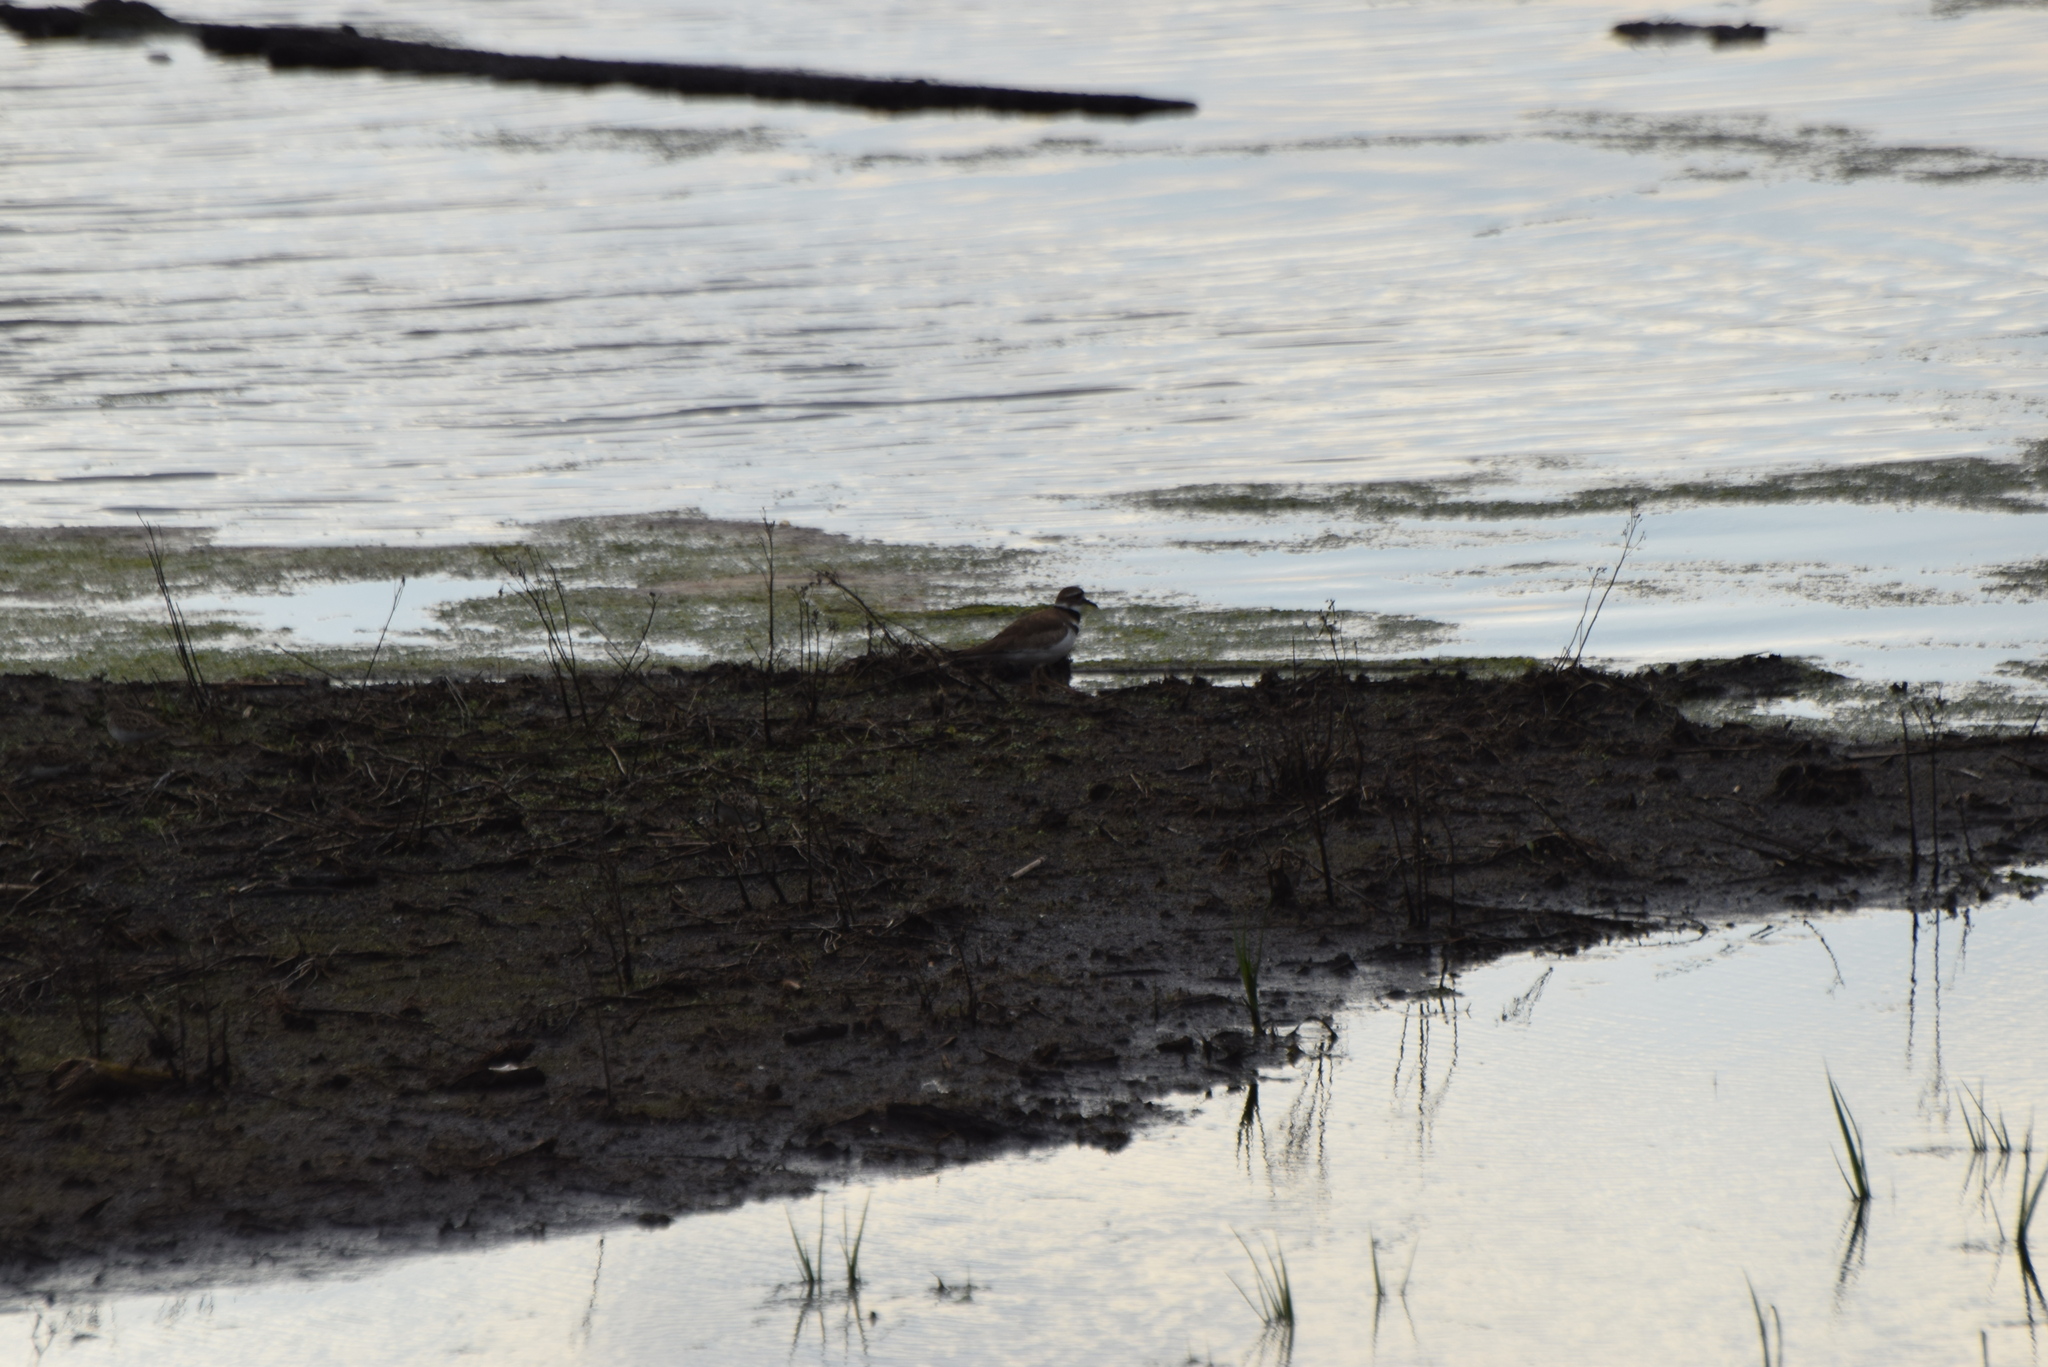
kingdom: Animalia
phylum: Chordata
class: Aves
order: Charadriiformes
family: Charadriidae
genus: Charadrius
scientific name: Charadrius vociferus
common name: Killdeer
